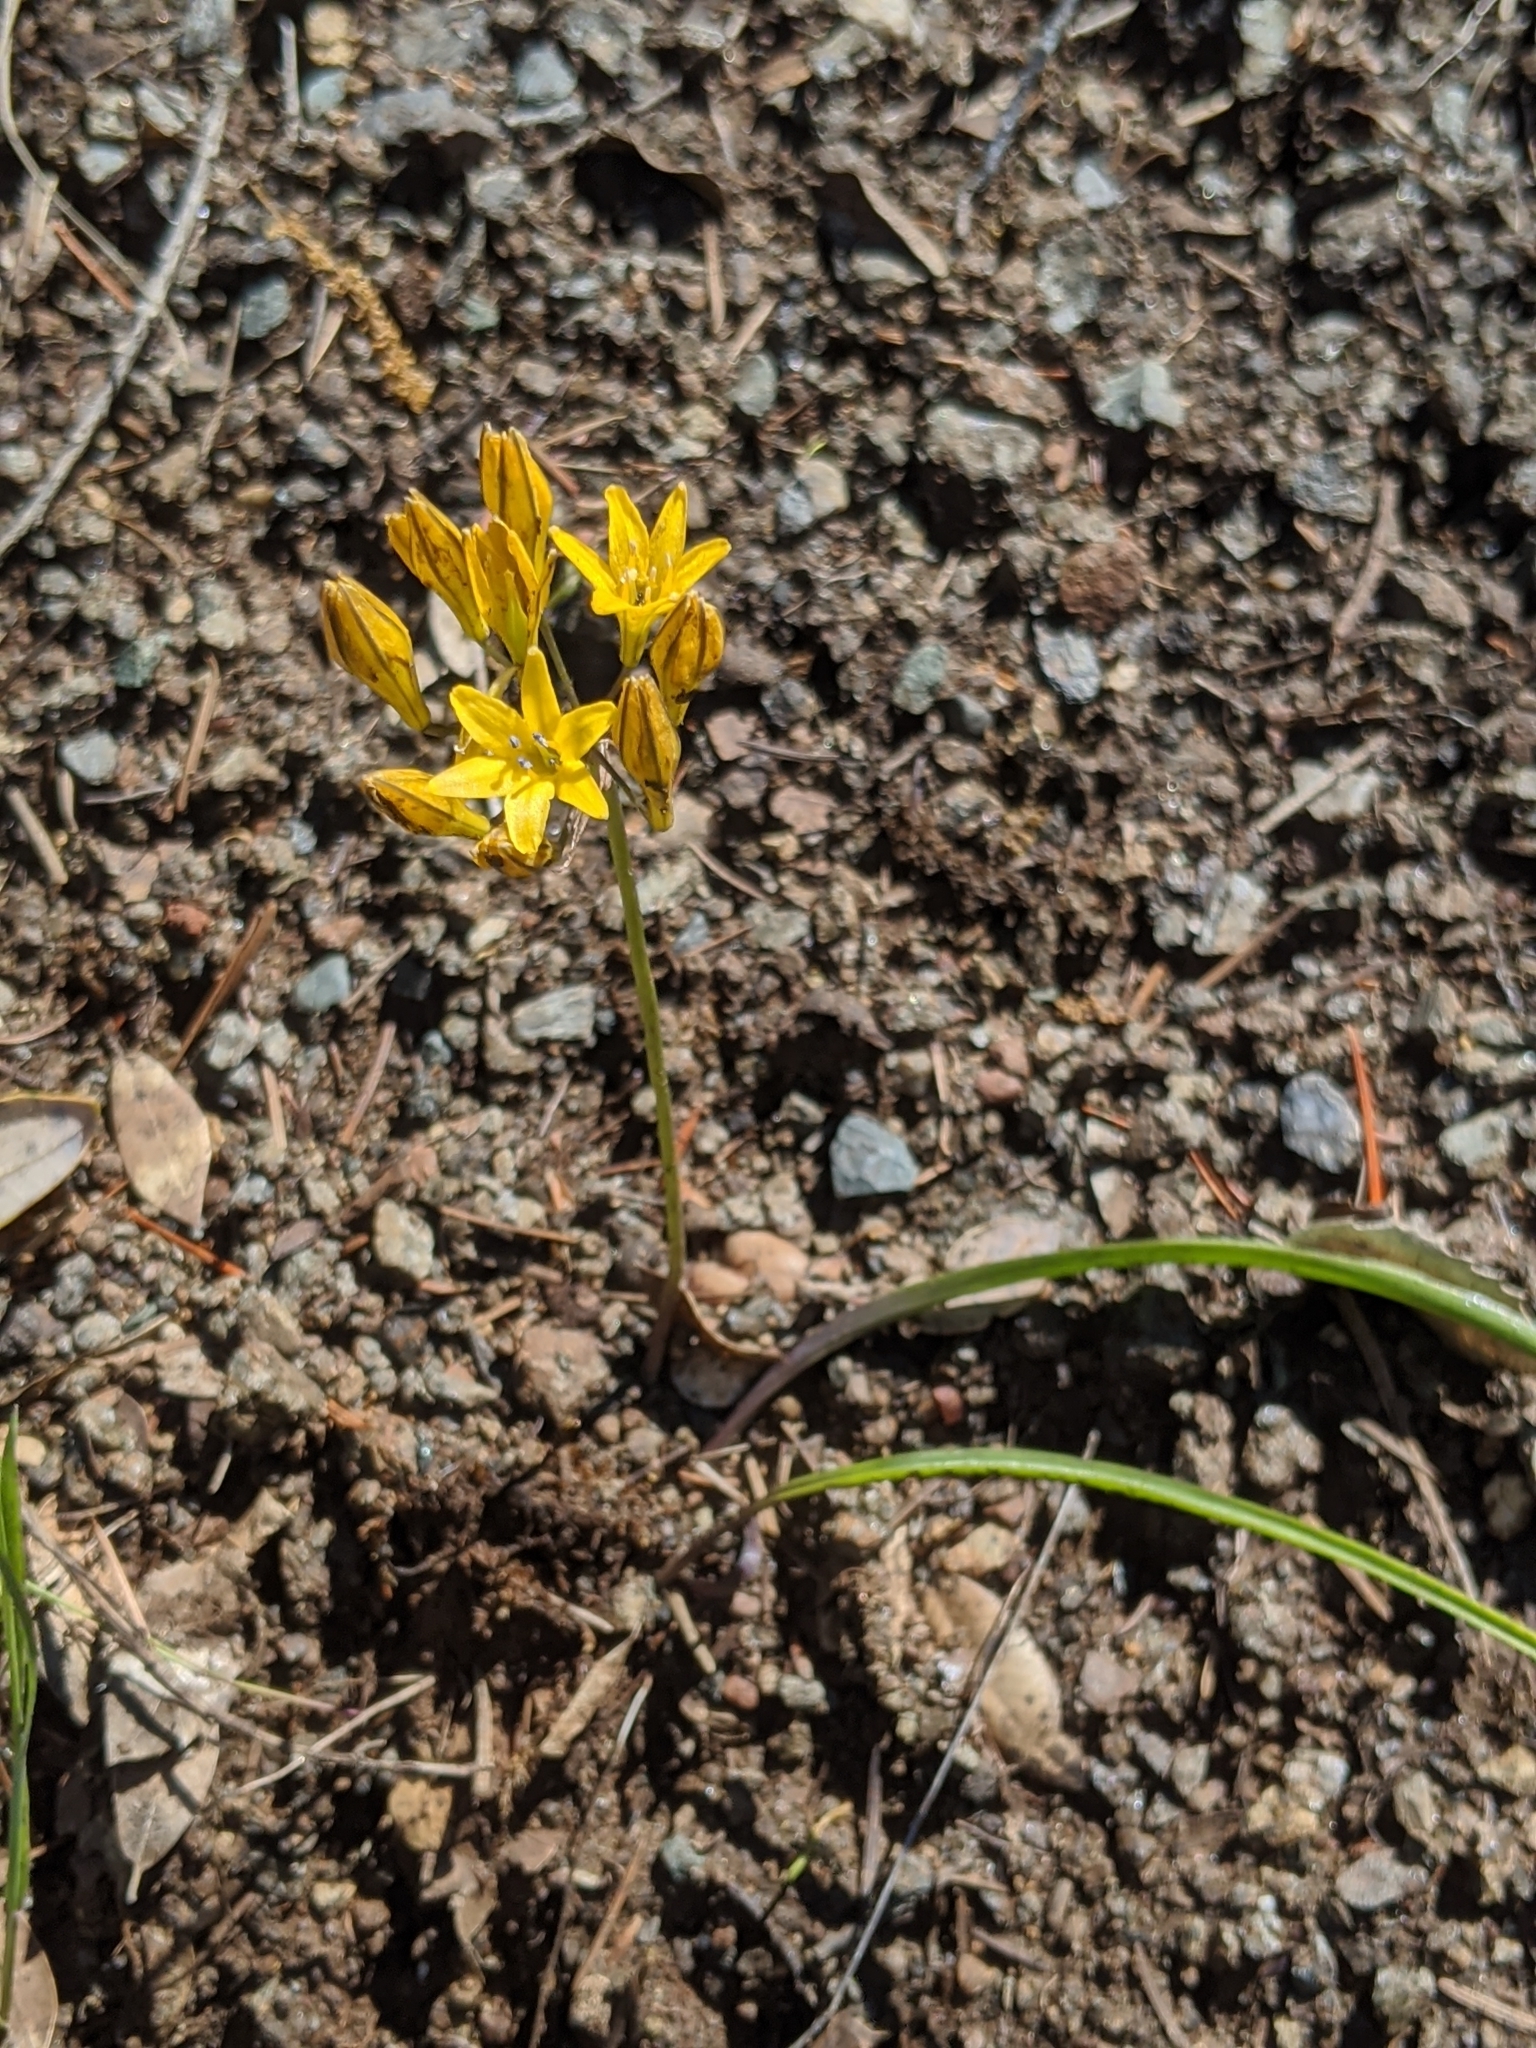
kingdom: Plantae
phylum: Tracheophyta
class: Liliopsida
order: Asparagales
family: Asparagaceae
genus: Triteleia
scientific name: Triteleia crocea
